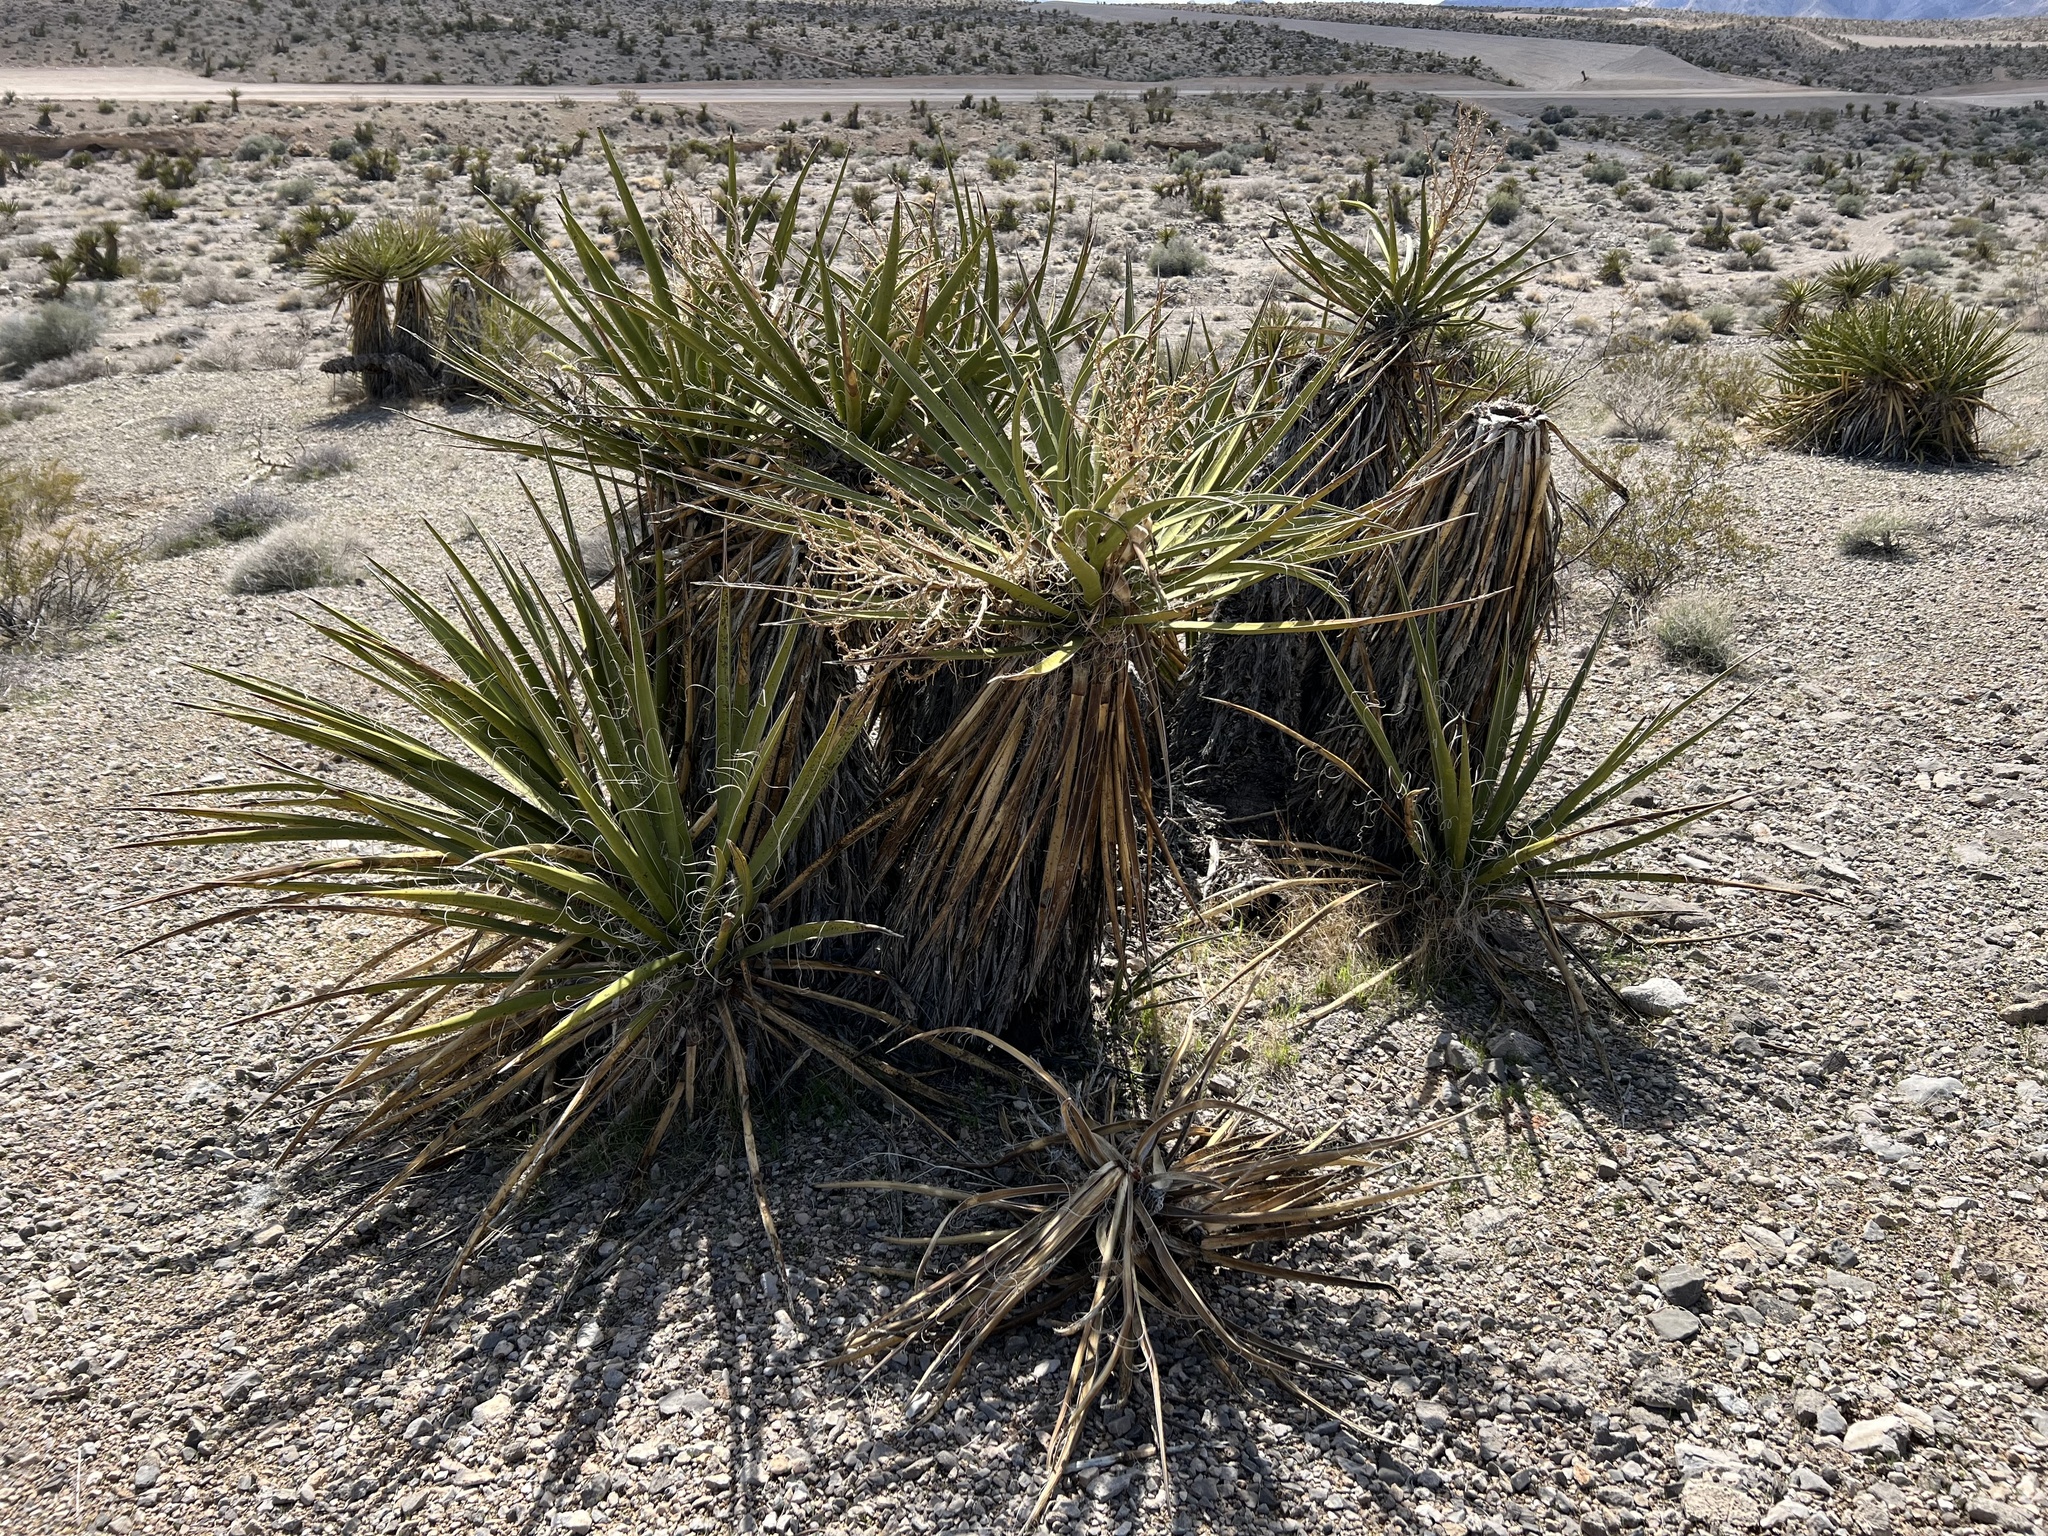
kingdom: Plantae
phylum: Tracheophyta
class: Liliopsida
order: Asparagales
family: Asparagaceae
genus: Yucca
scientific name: Yucca schidigera
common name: Mojave yucca
